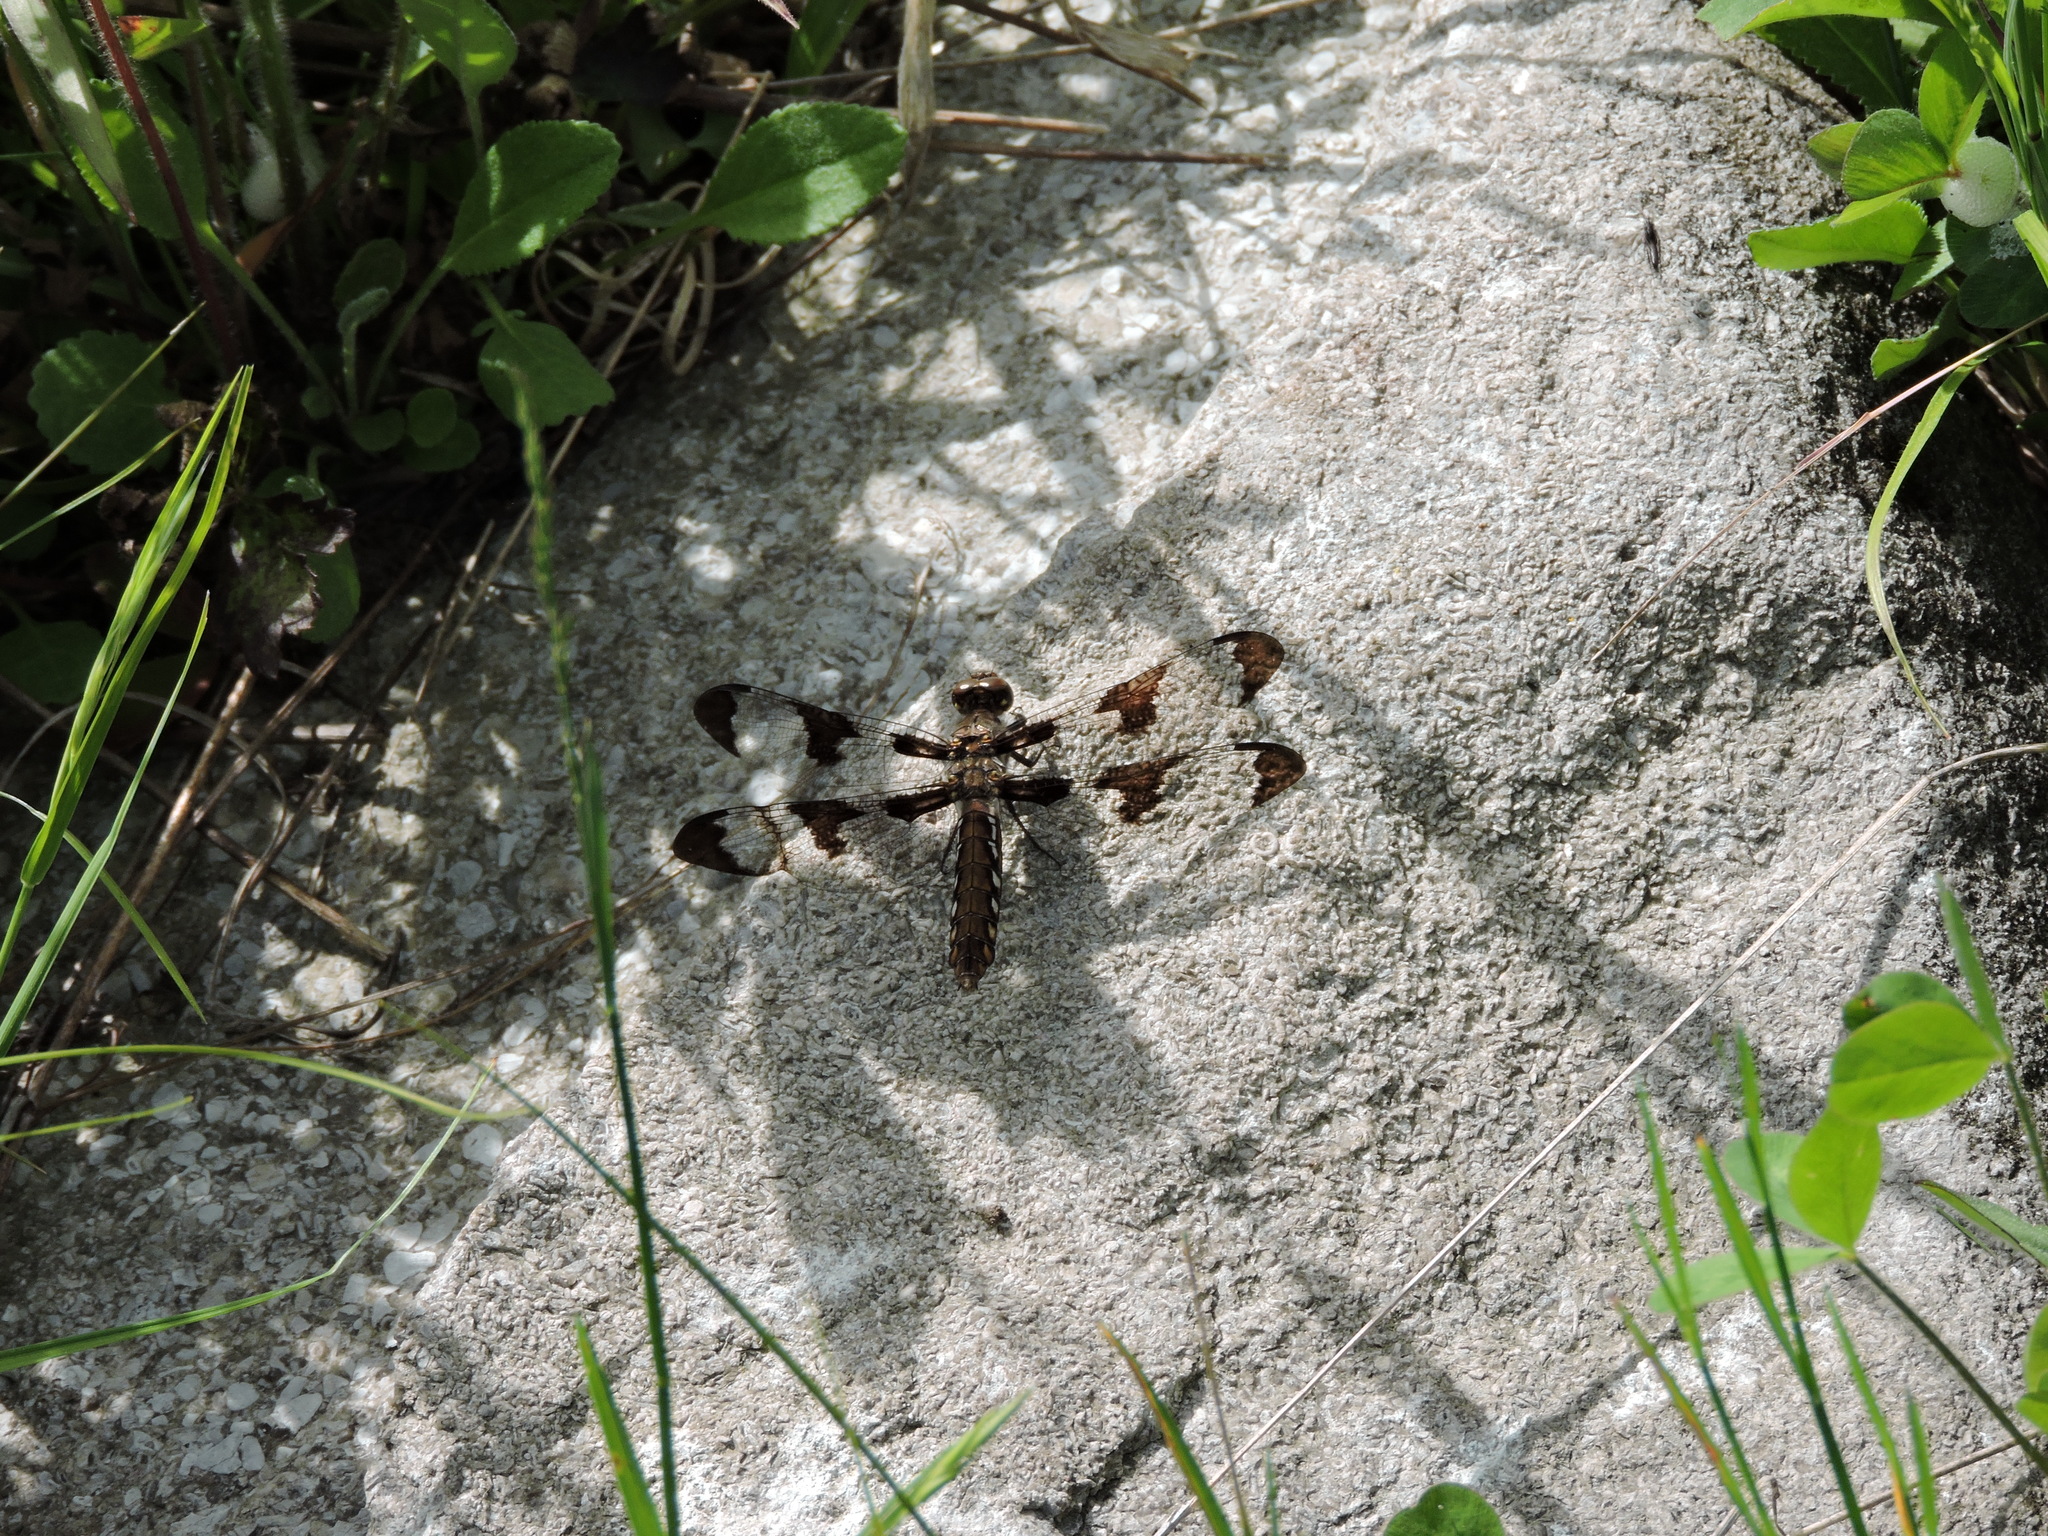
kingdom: Animalia
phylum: Arthropoda
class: Insecta
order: Odonata
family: Libellulidae
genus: Plathemis
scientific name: Plathemis lydia
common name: Common whitetail
